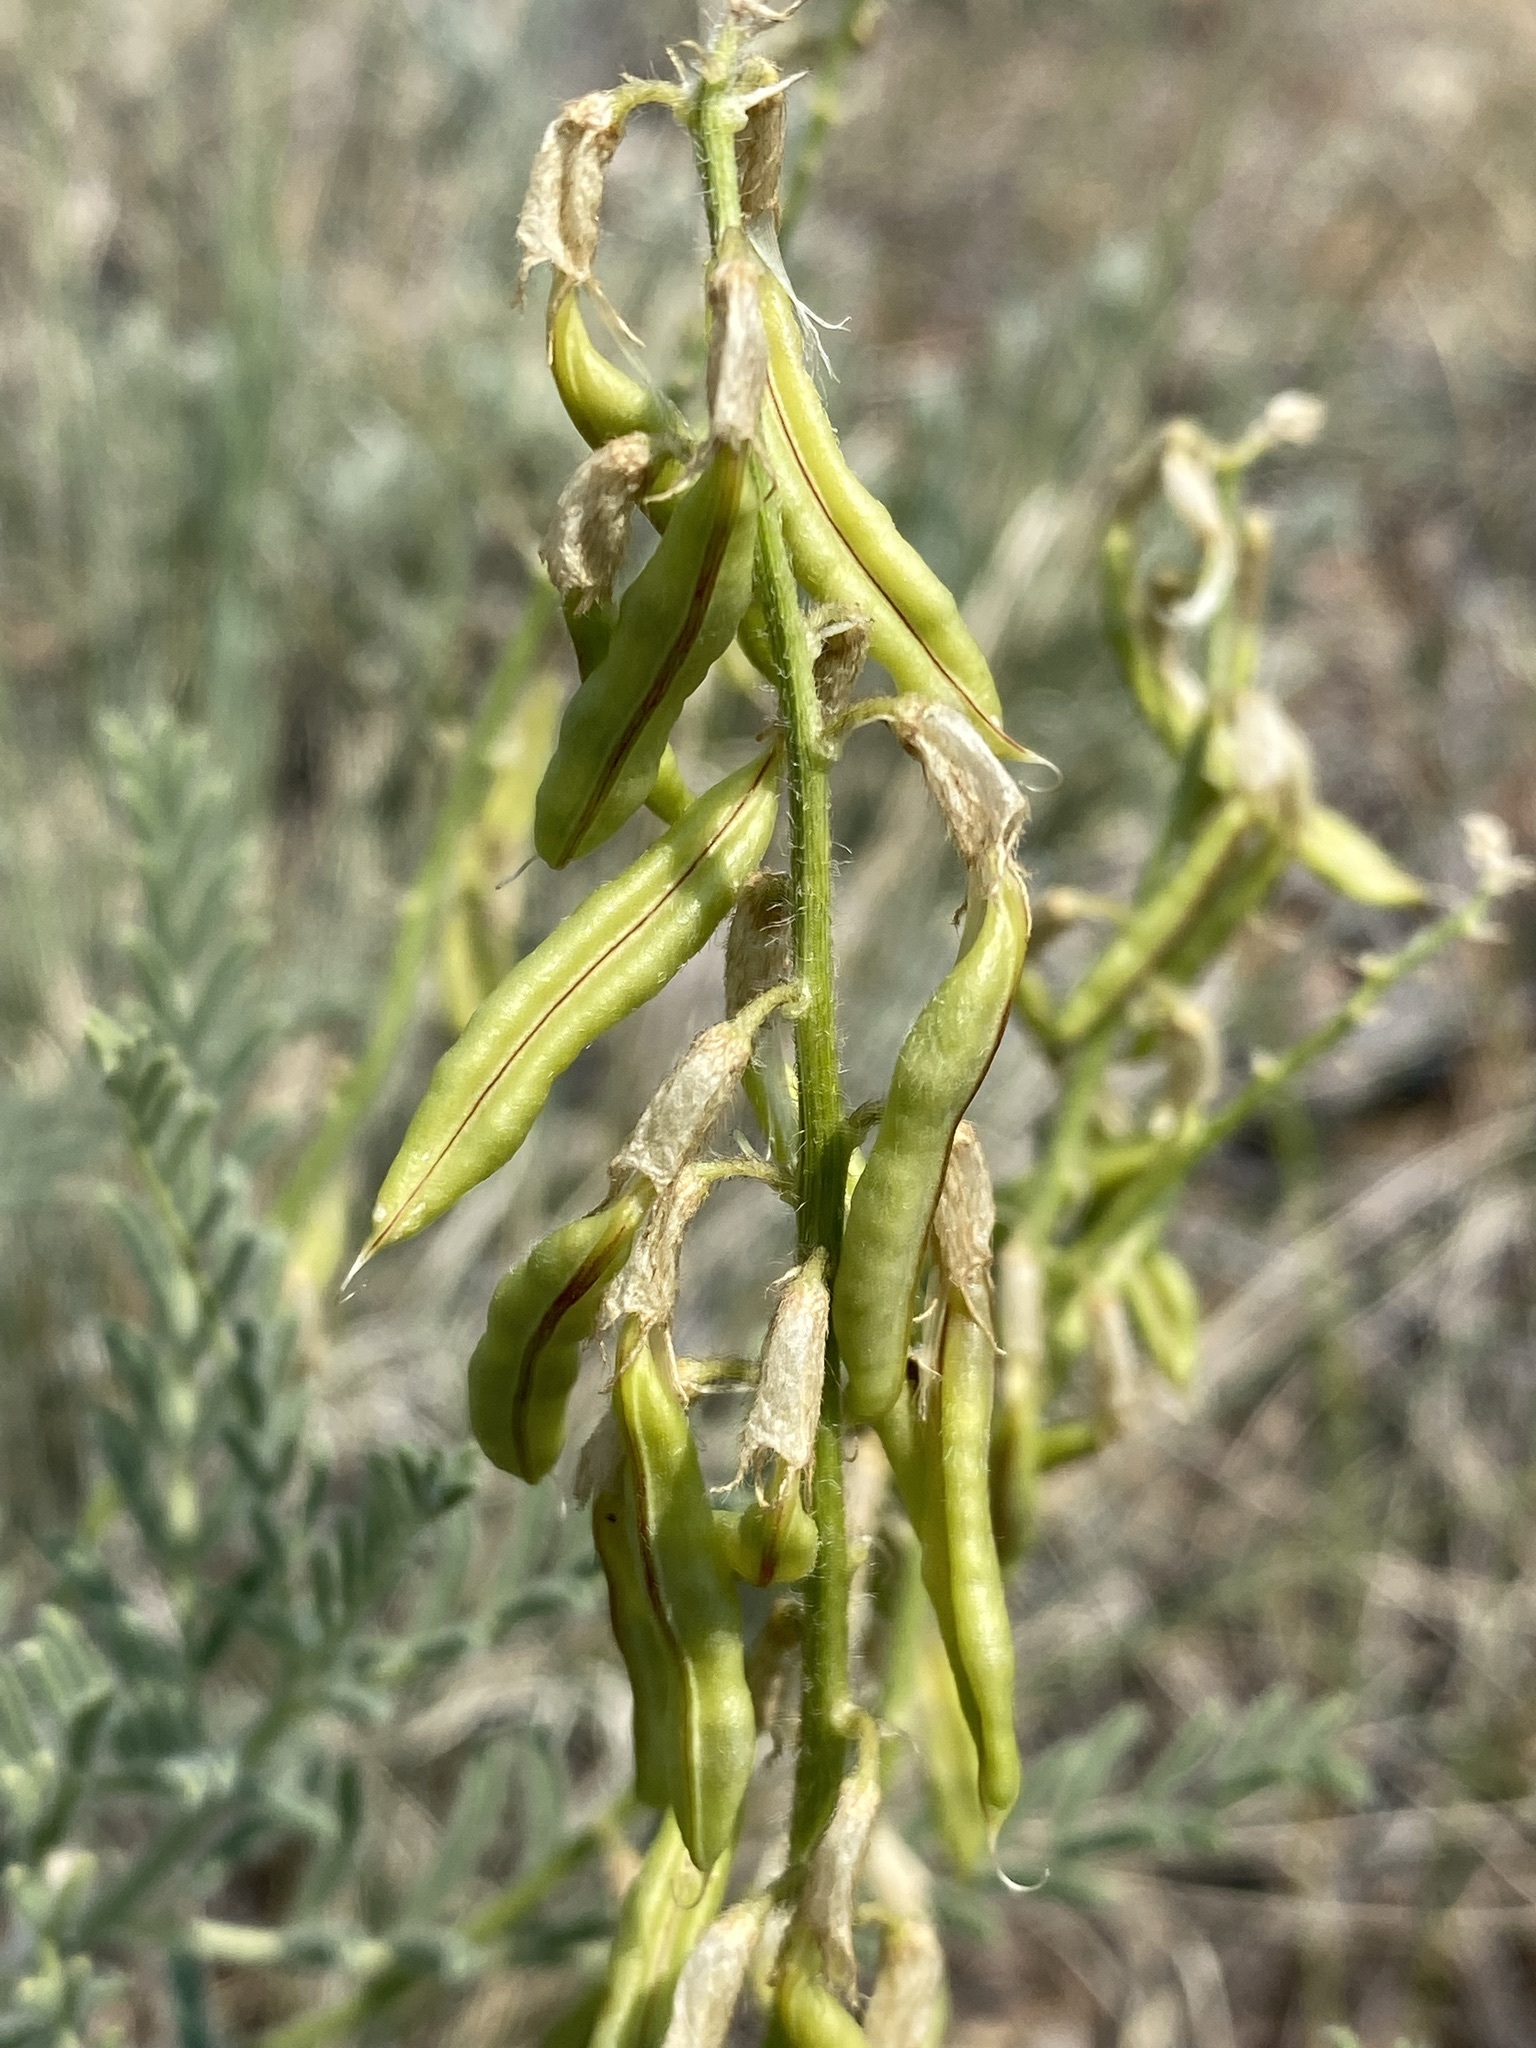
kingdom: Plantae
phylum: Tracheophyta
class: Magnoliopsida
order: Fabales
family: Fabaceae
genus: Astragalus
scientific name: Astragalus drummondii
